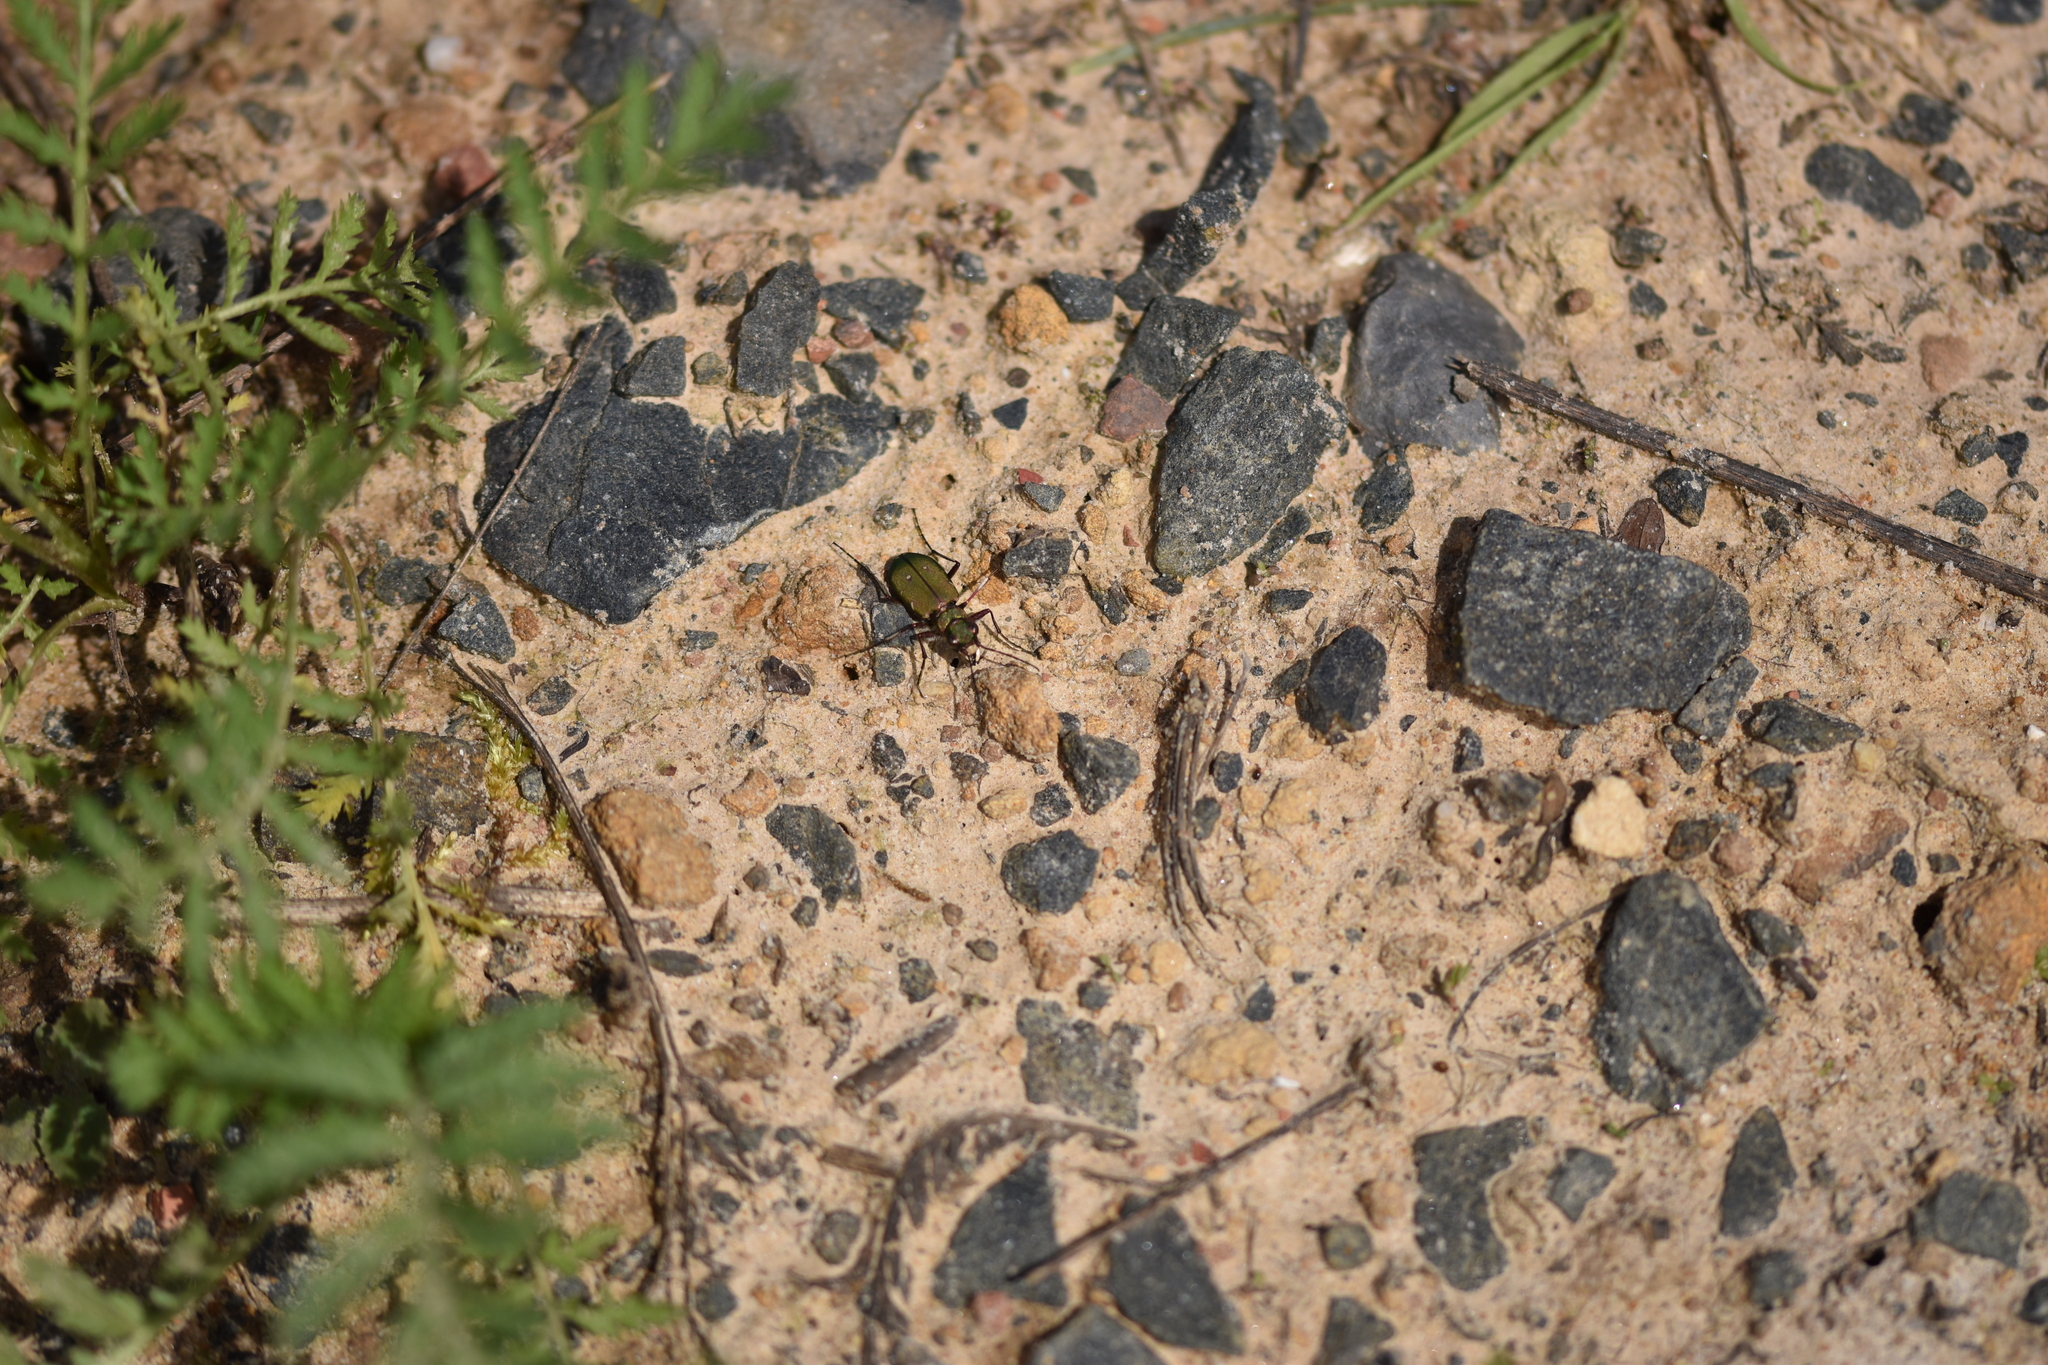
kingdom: Animalia
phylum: Arthropoda
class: Insecta
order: Coleoptera
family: Carabidae
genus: Cicindela
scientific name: Cicindela campestris
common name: Common tiger beetle
